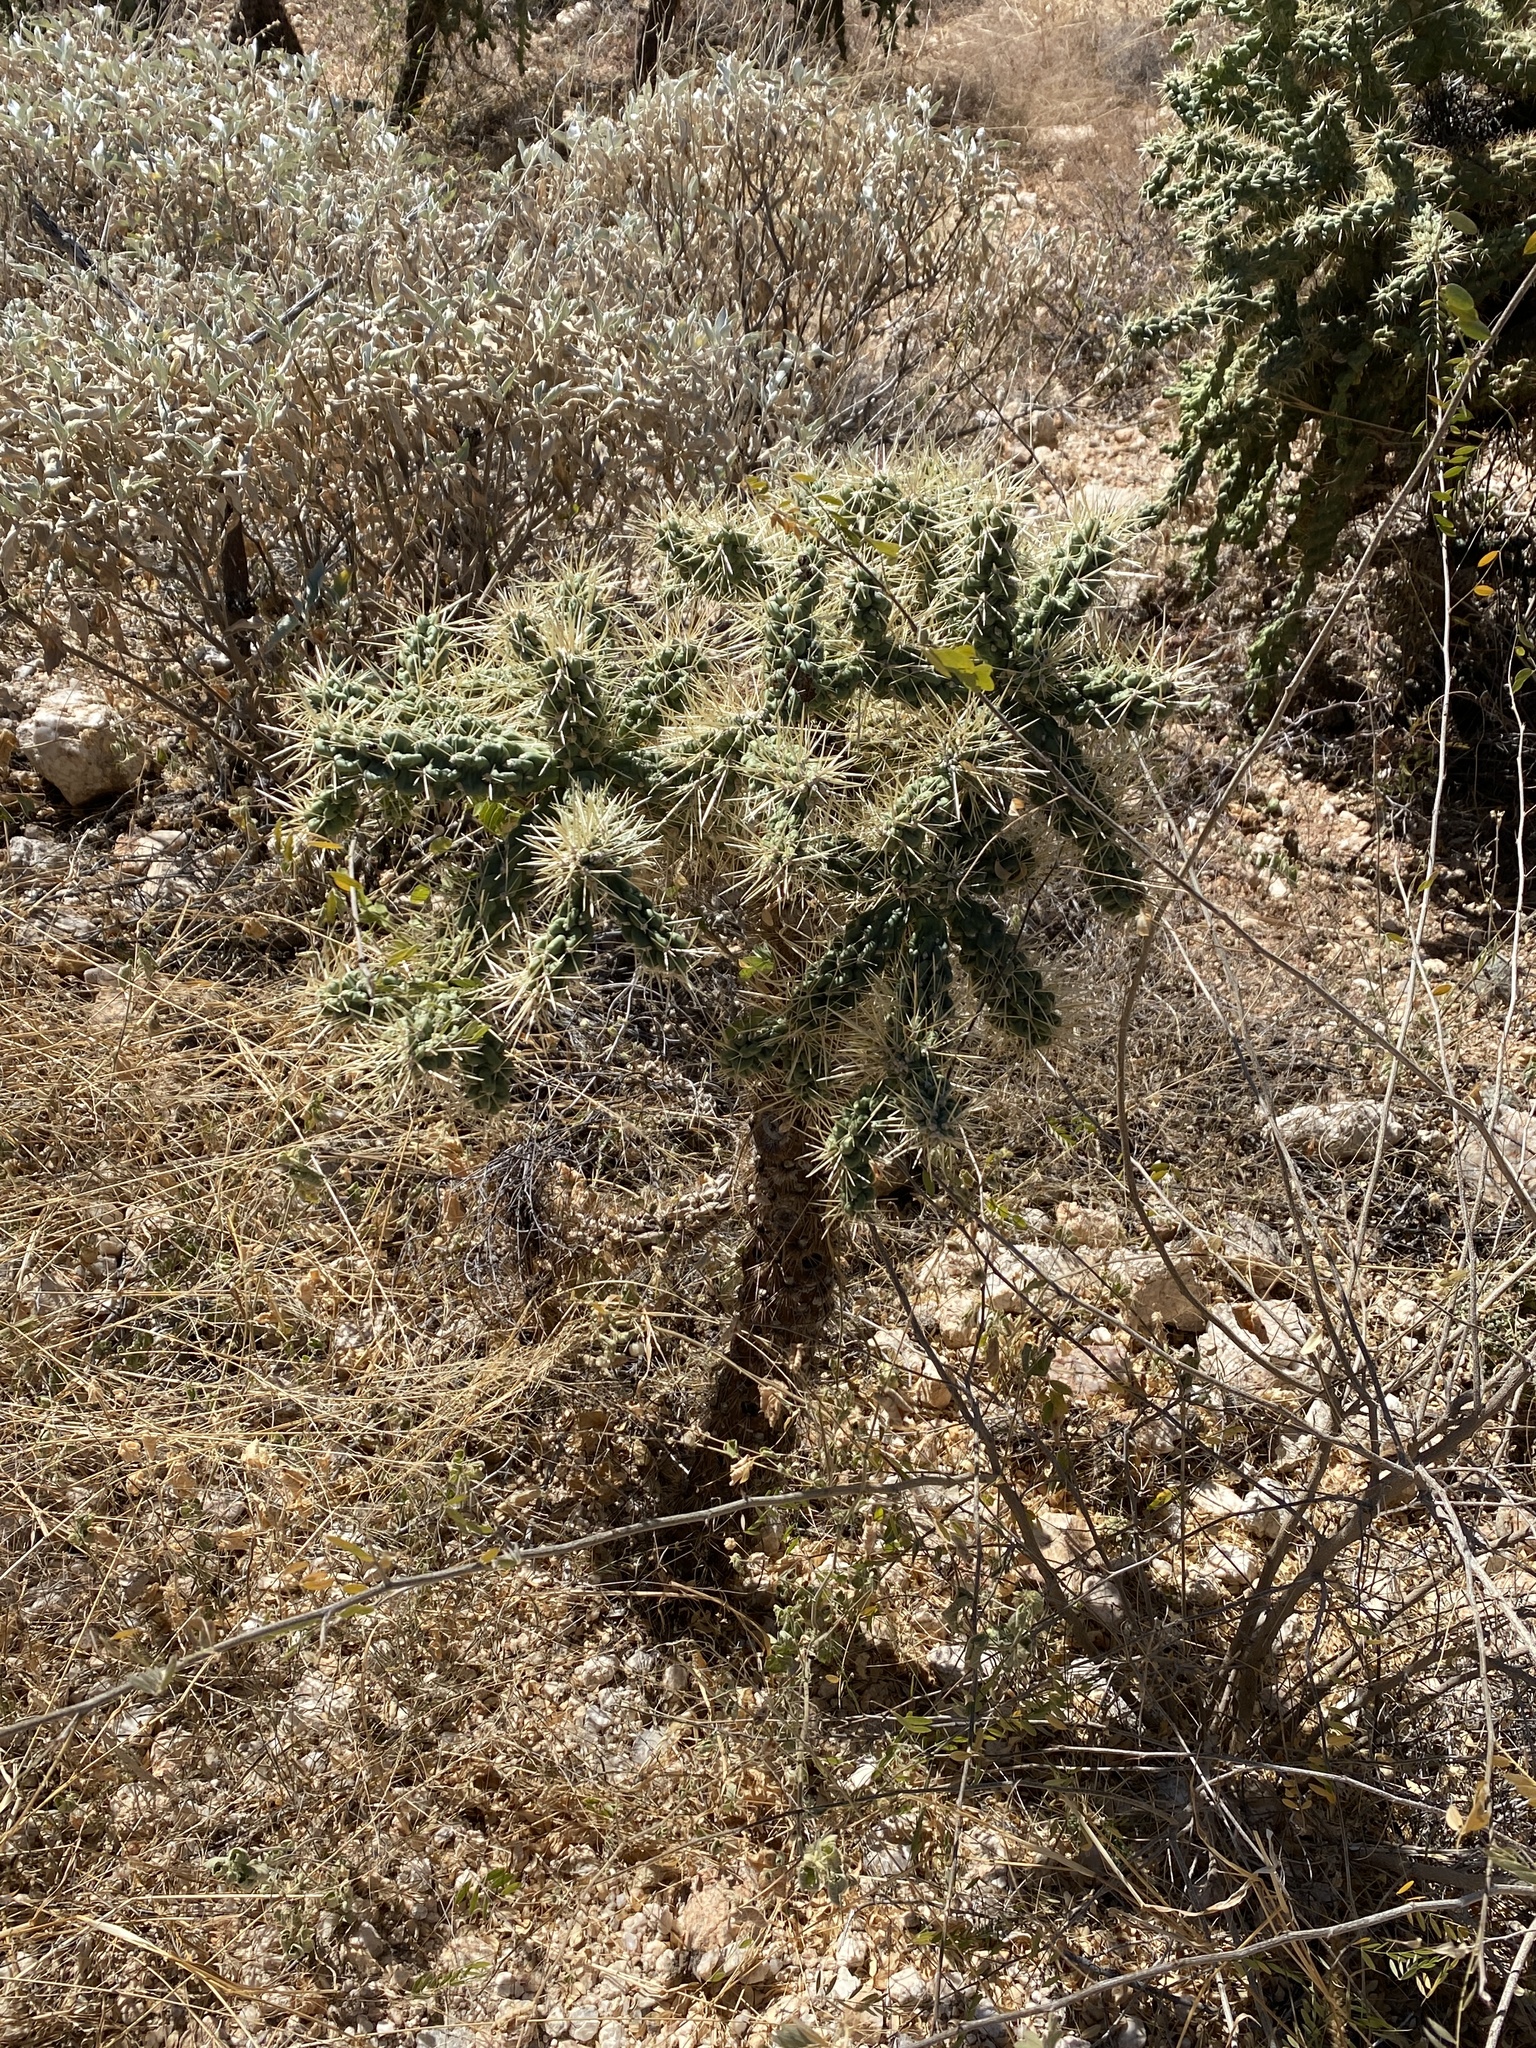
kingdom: Plantae
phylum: Tracheophyta
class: Magnoliopsida
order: Caryophyllales
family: Cactaceae
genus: Cylindropuntia
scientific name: Cylindropuntia fulgida
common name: Jumping cholla
